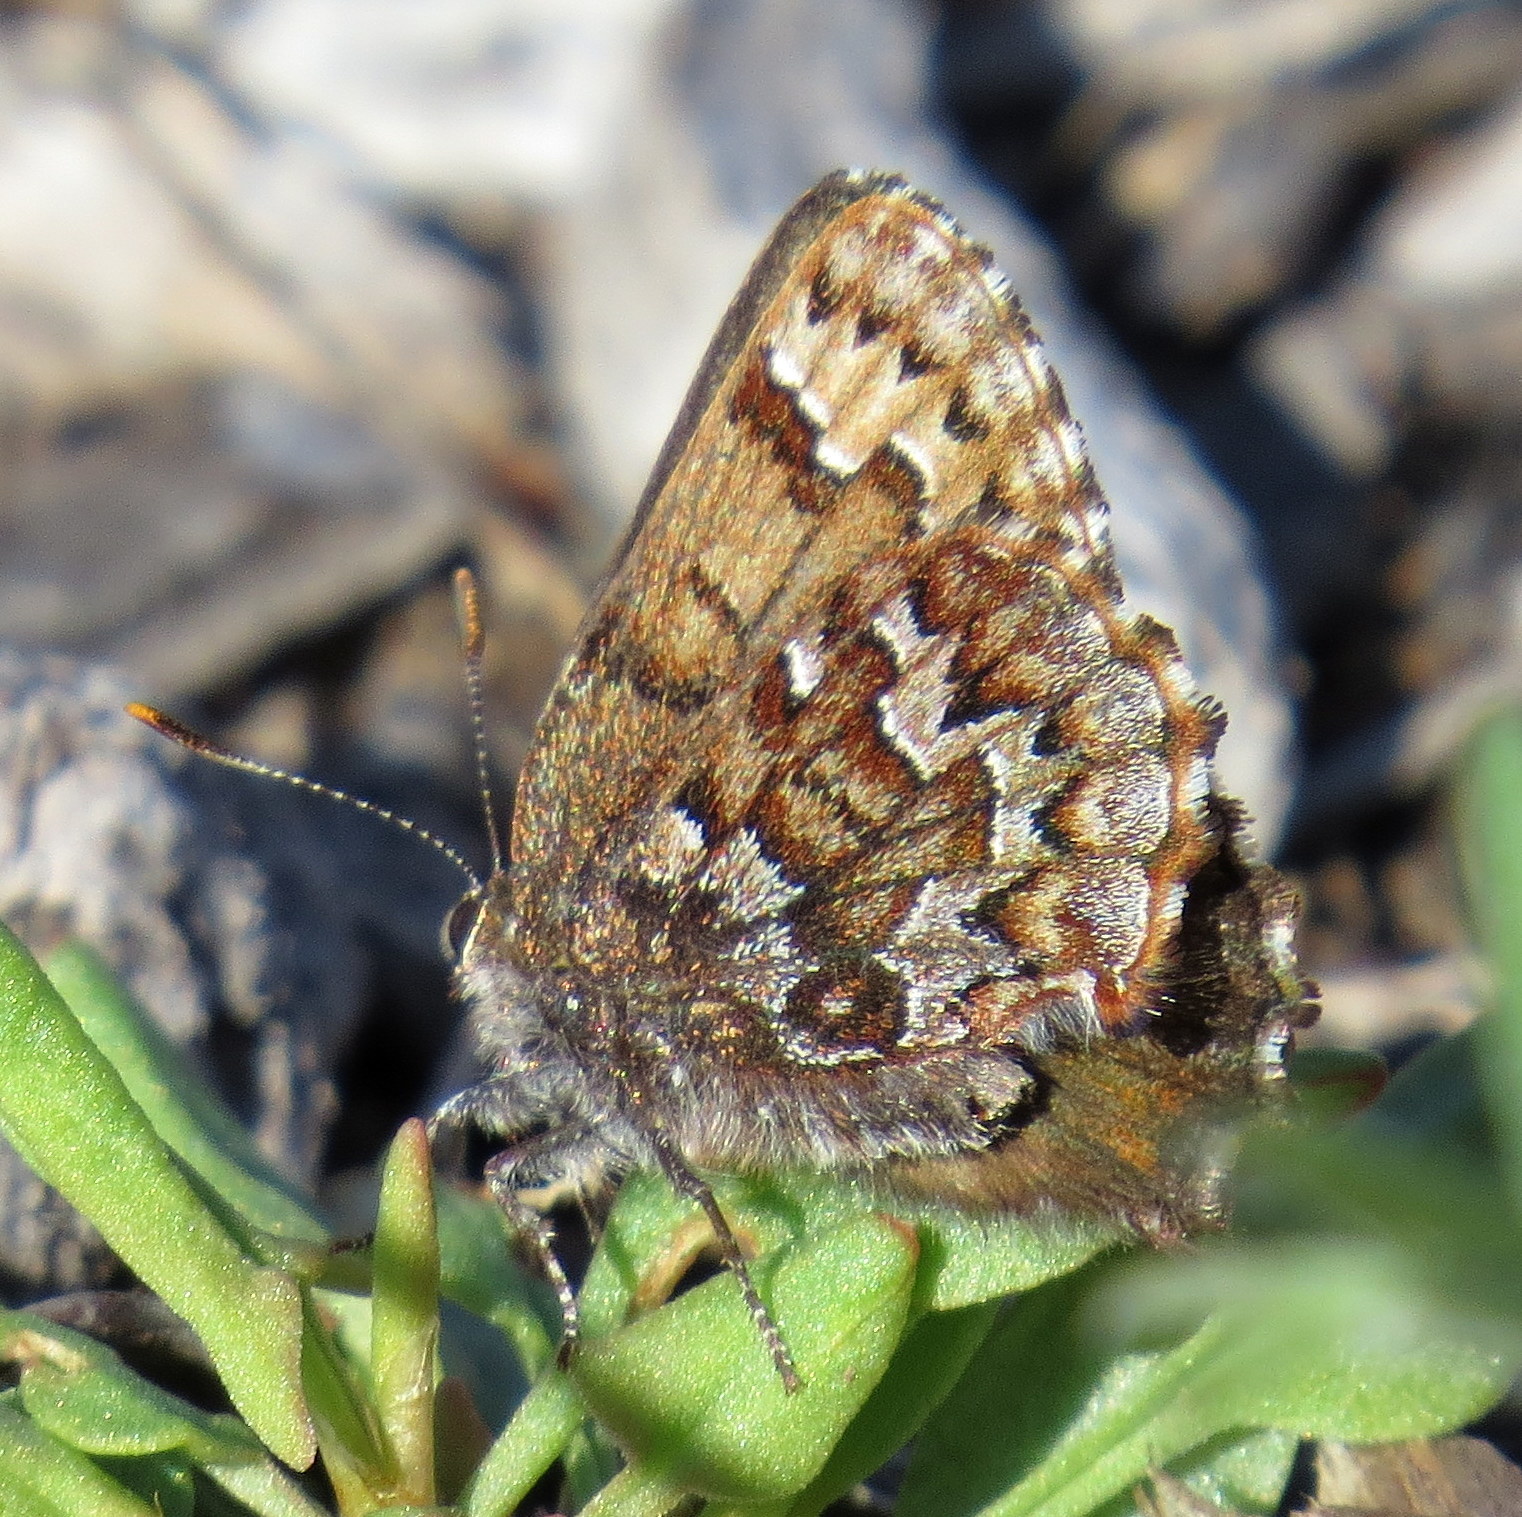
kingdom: Animalia
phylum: Arthropoda
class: Insecta
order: Lepidoptera
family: Lycaenidae
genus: Incisalia
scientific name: Incisalia niphon
